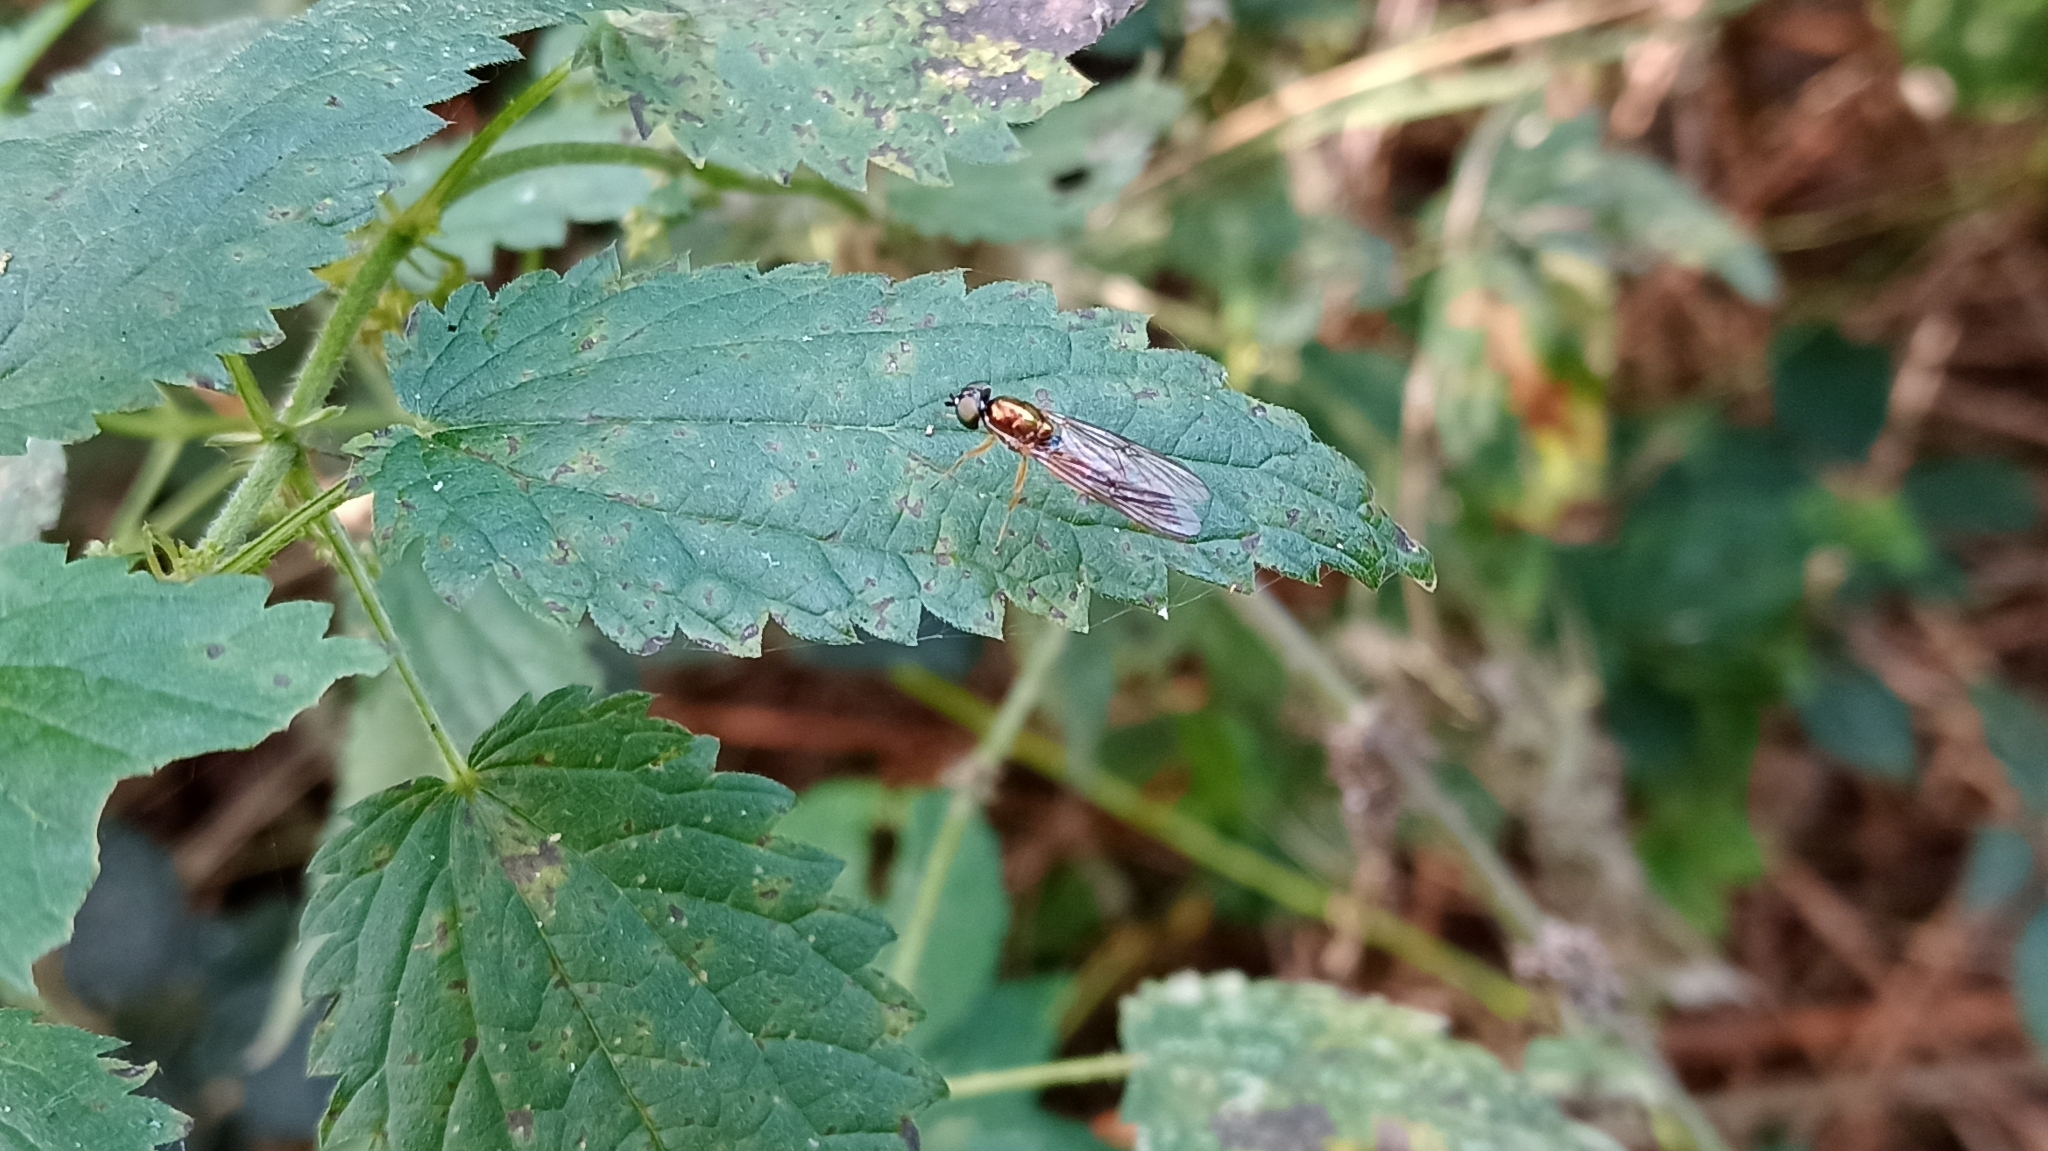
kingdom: Animalia
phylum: Arthropoda
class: Insecta
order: Diptera
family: Stratiomyidae
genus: Sargus
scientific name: Sargus bipunctatus
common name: Twin-spot centurion
